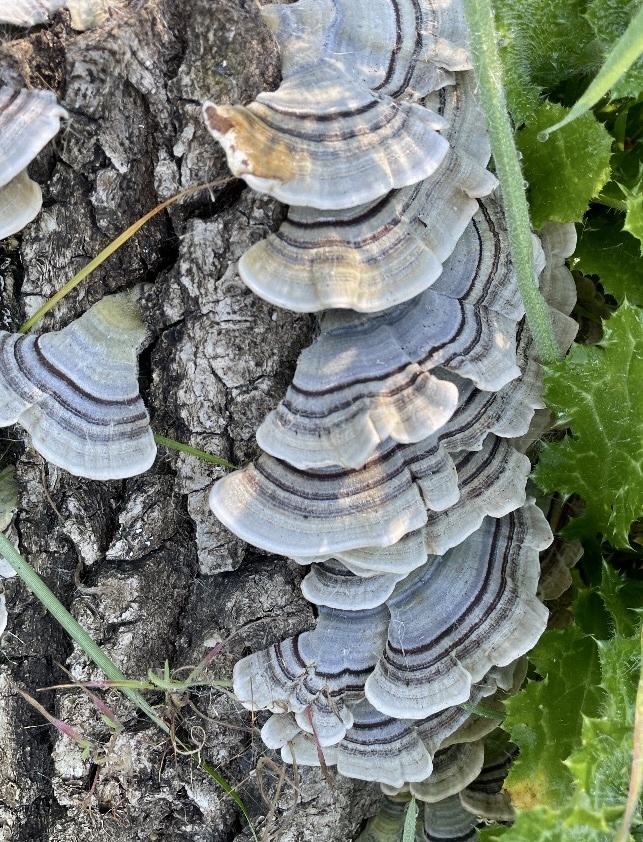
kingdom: Fungi
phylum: Basidiomycota
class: Agaricomycetes
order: Polyporales
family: Polyporaceae
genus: Trametes
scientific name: Trametes versicolor
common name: Turkeytail
